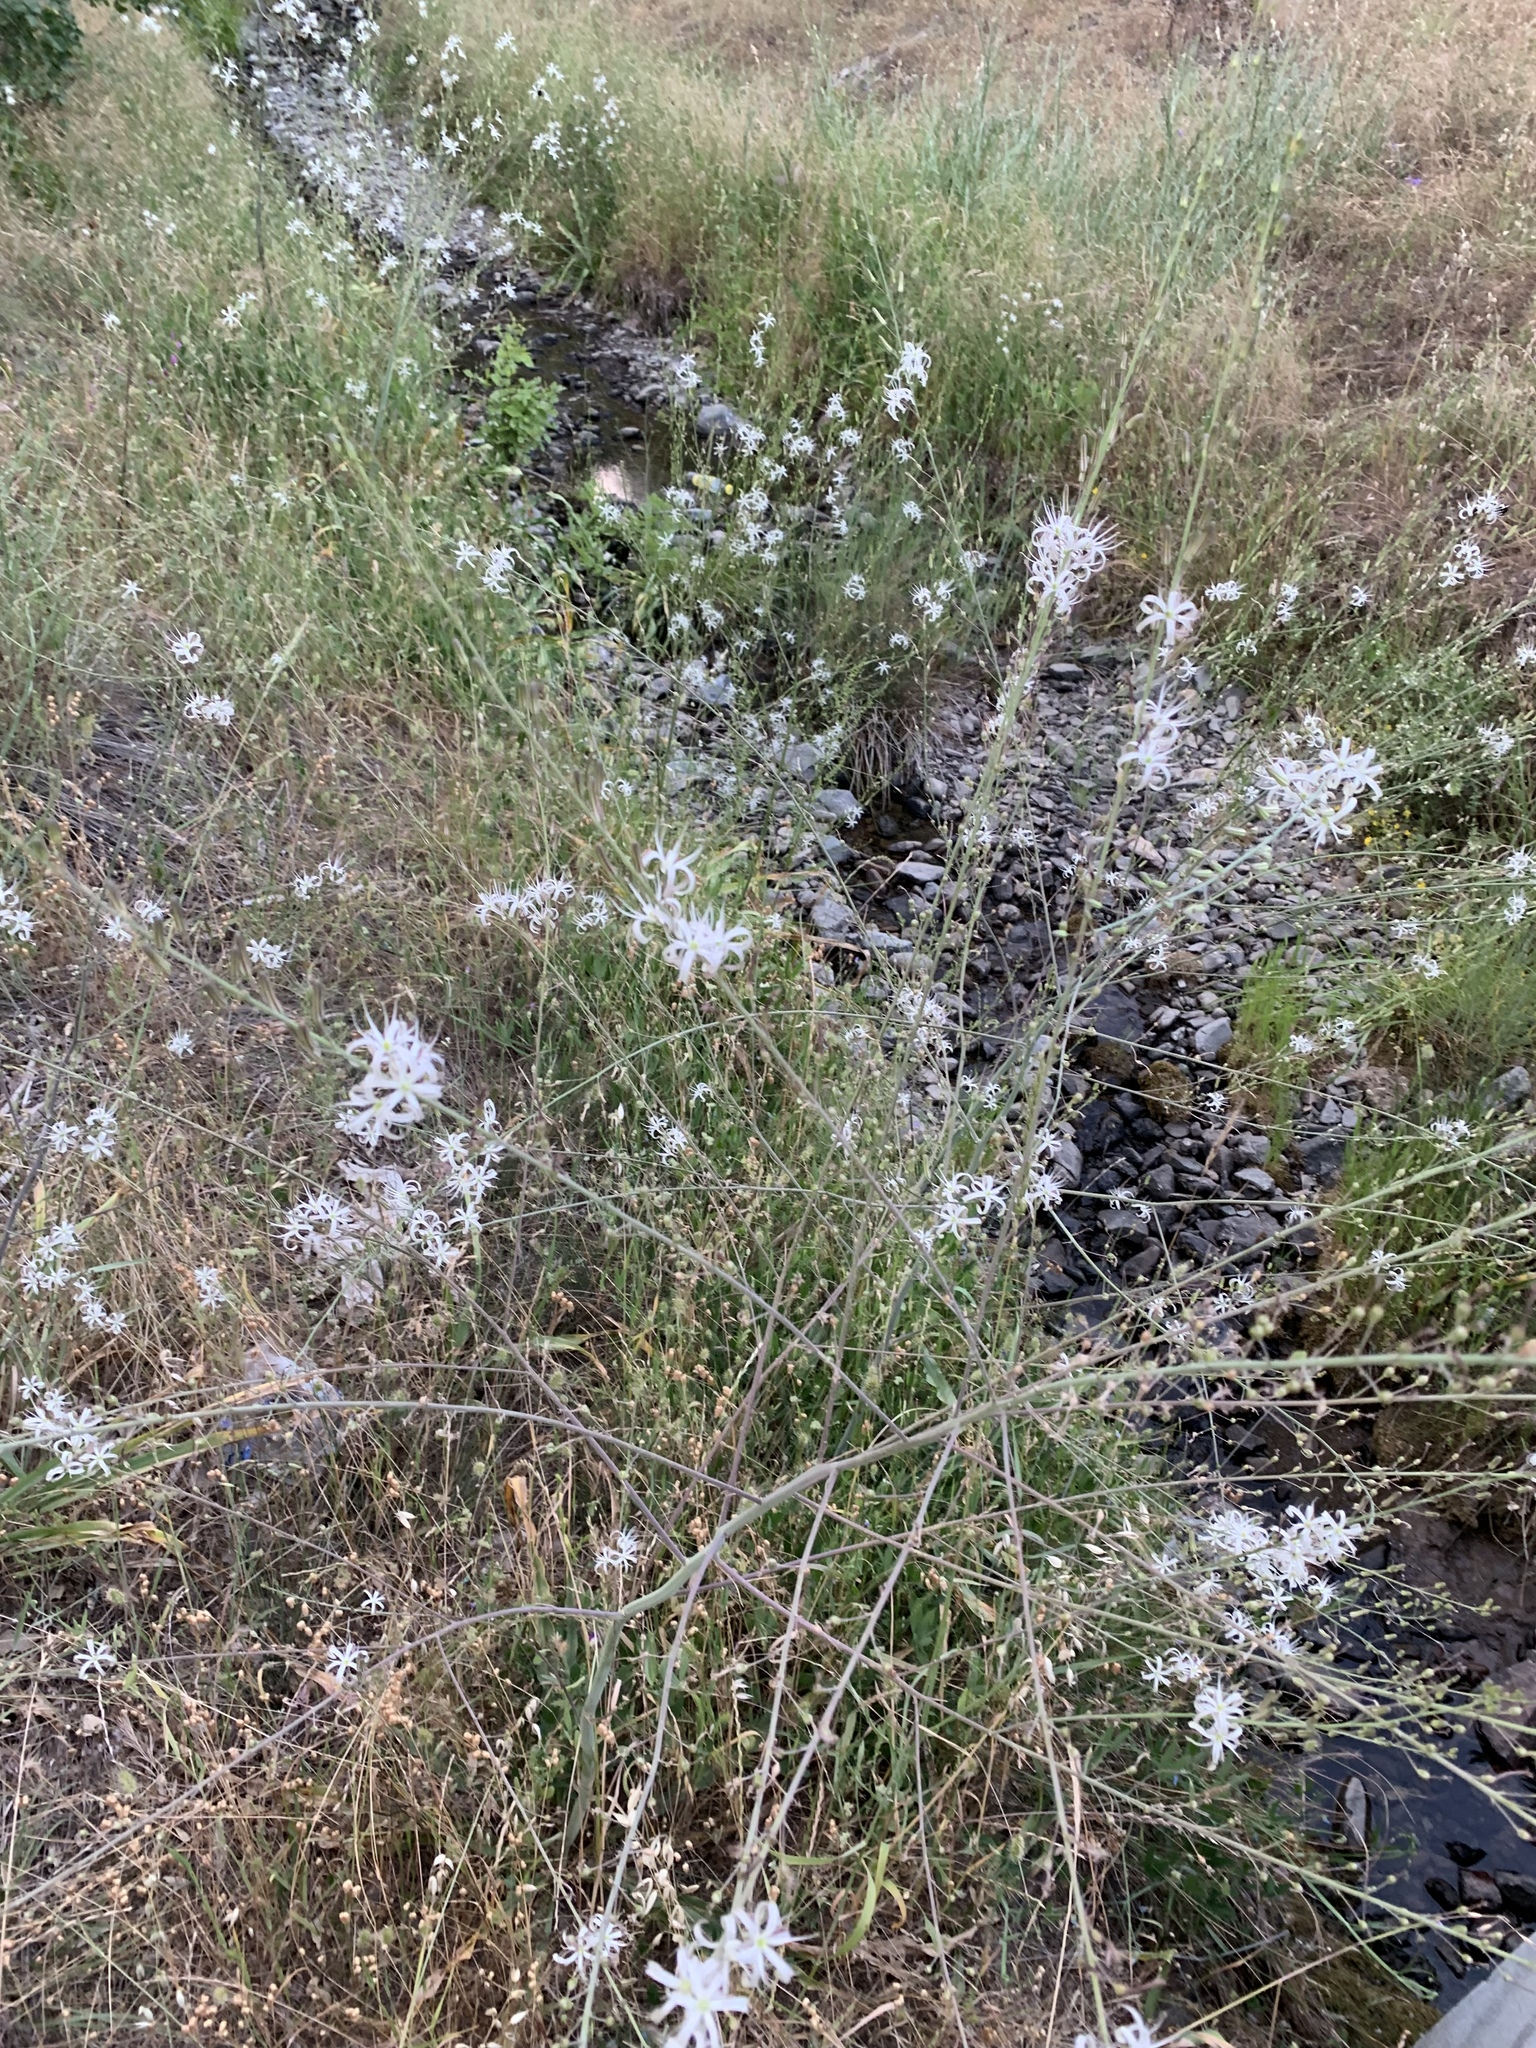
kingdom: Plantae
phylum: Tracheophyta
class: Liliopsida
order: Asparagales
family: Asparagaceae
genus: Chlorogalum
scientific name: Chlorogalum pomeridianum
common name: Amole
